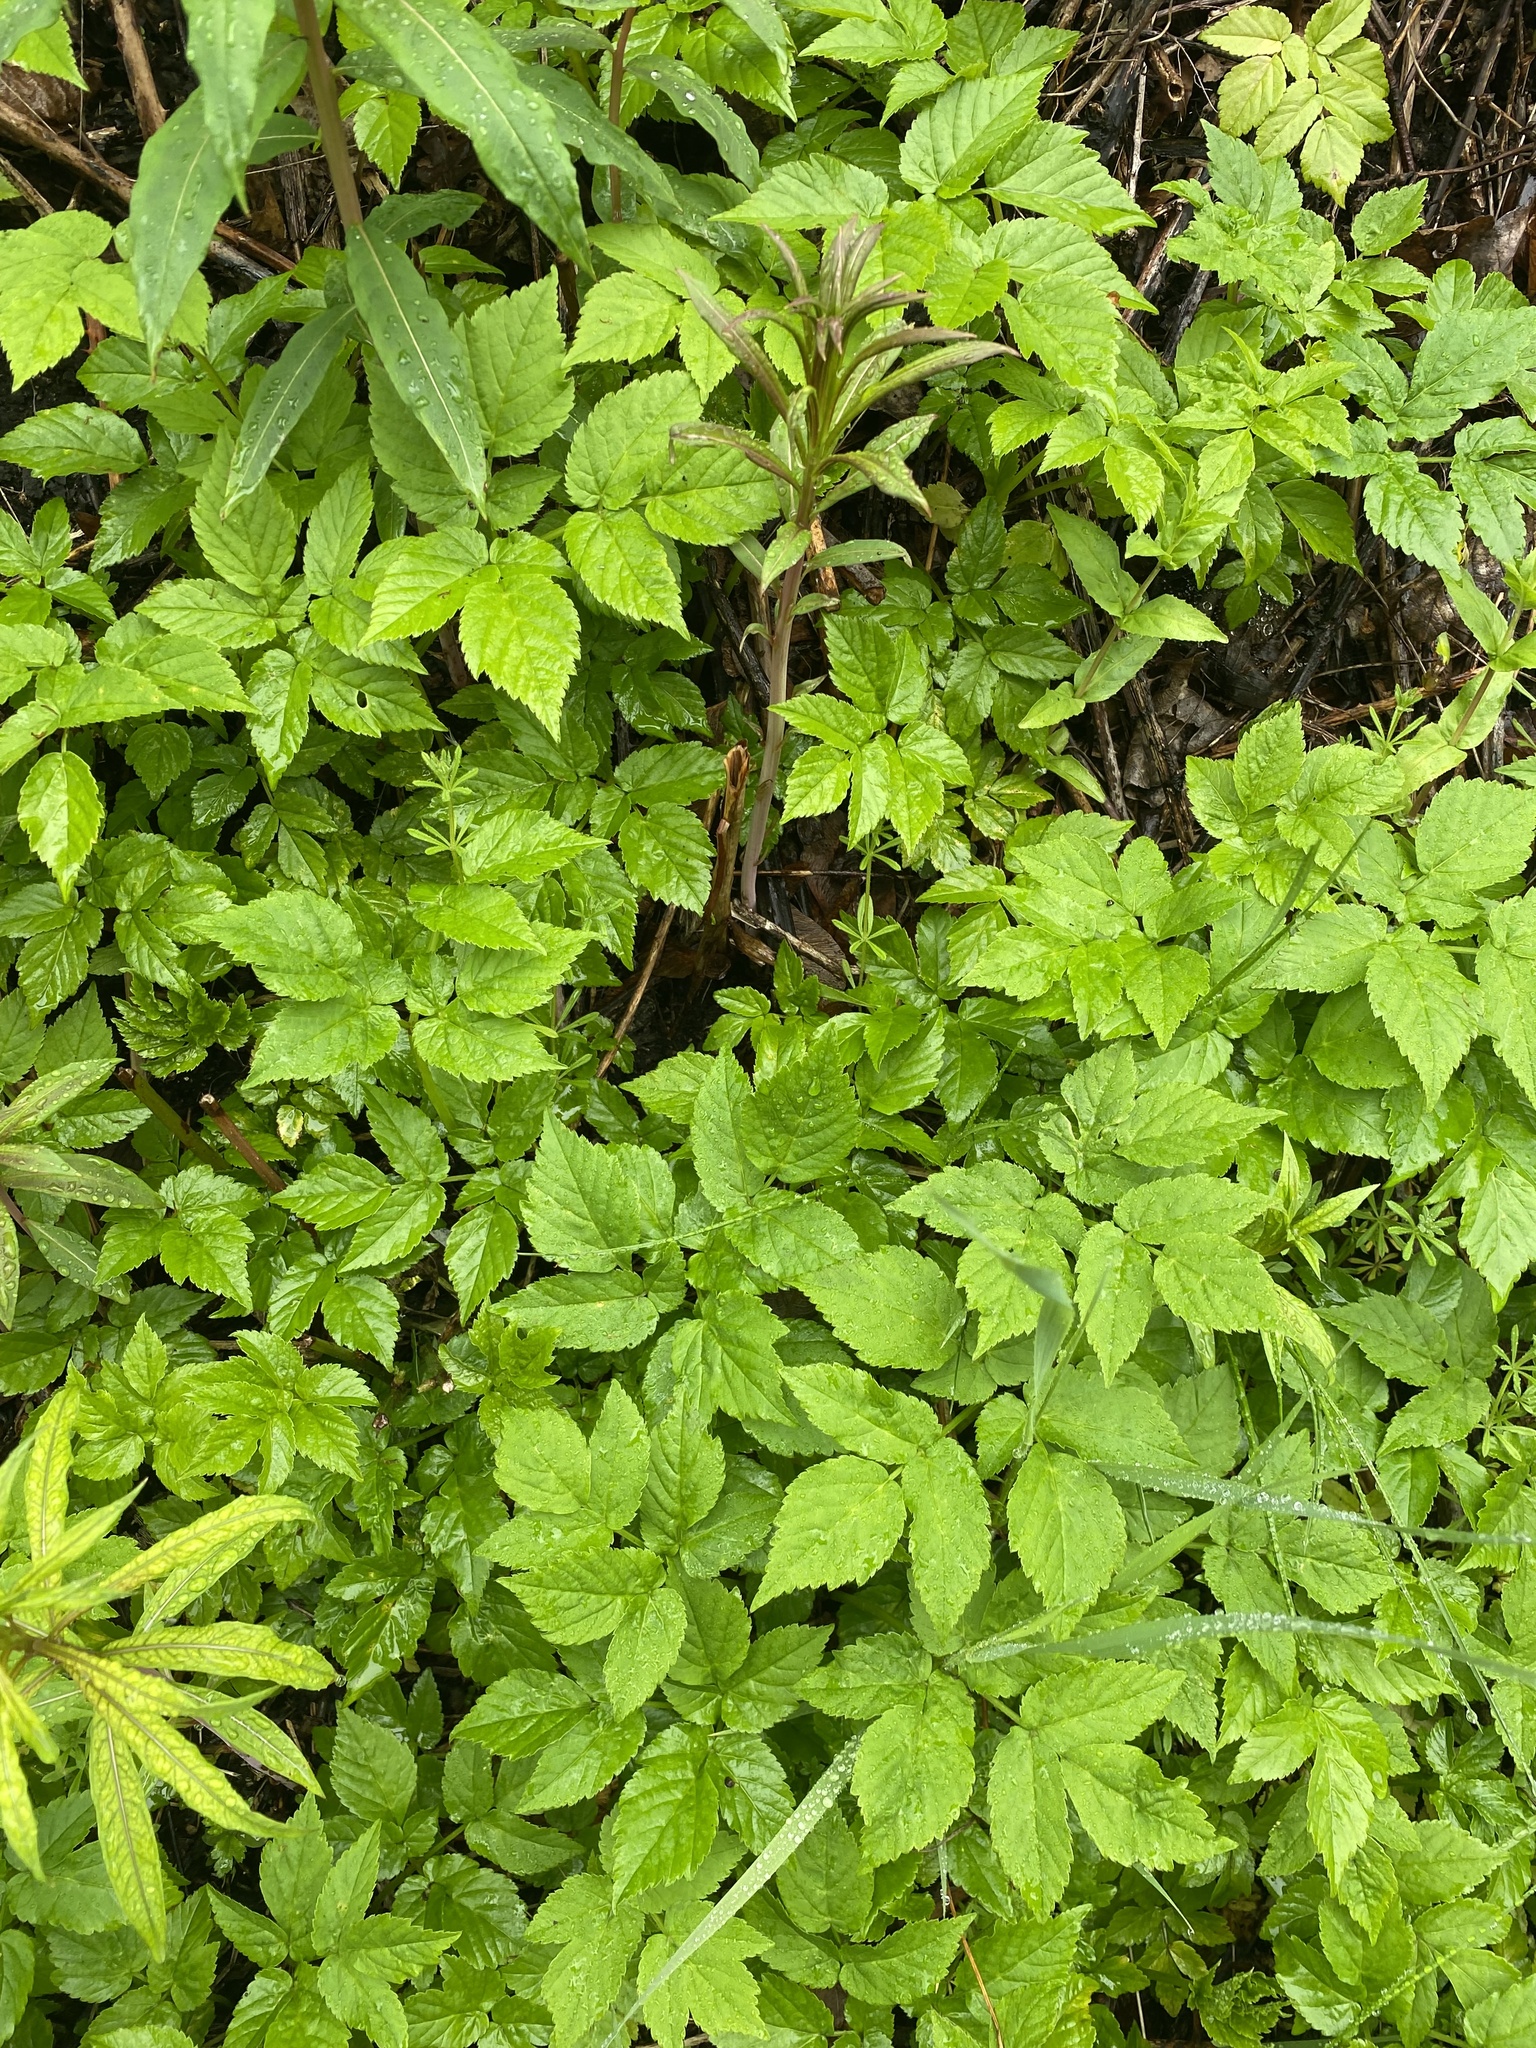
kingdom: Plantae
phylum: Tracheophyta
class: Magnoliopsida
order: Apiales
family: Apiaceae
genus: Aegopodium
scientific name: Aegopodium podagraria
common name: Ground-elder
